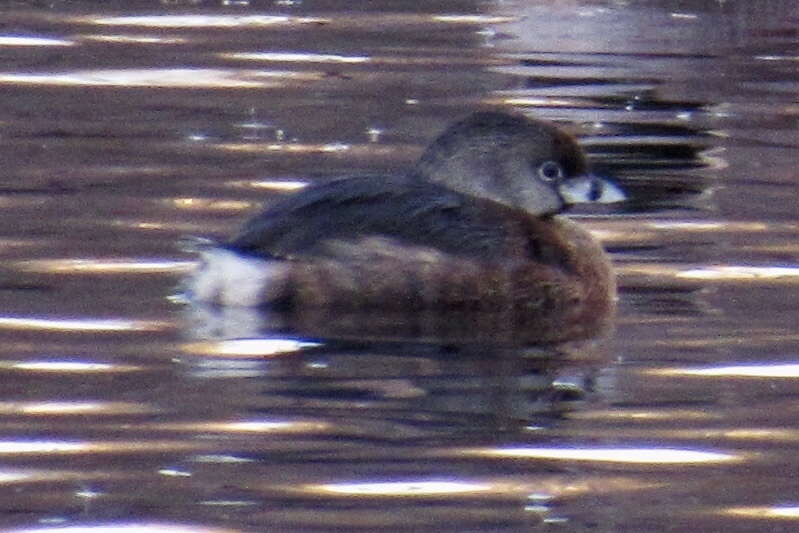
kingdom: Animalia
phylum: Chordata
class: Aves
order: Podicipediformes
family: Podicipedidae
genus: Podilymbus
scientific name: Podilymbus podiceps
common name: Pied-billed grebe
